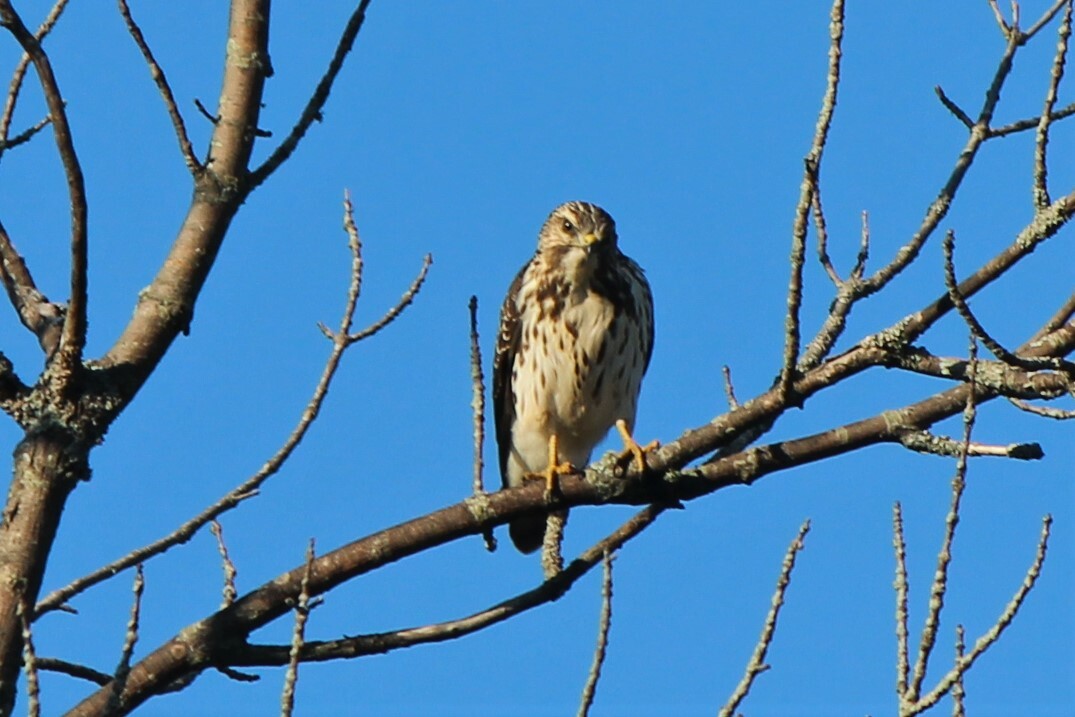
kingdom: Animalia
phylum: Chordata
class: Aves
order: Accipitriformes
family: Accipitridae
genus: Buteo
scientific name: Buteo platypterus
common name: Broad-winged hawk
